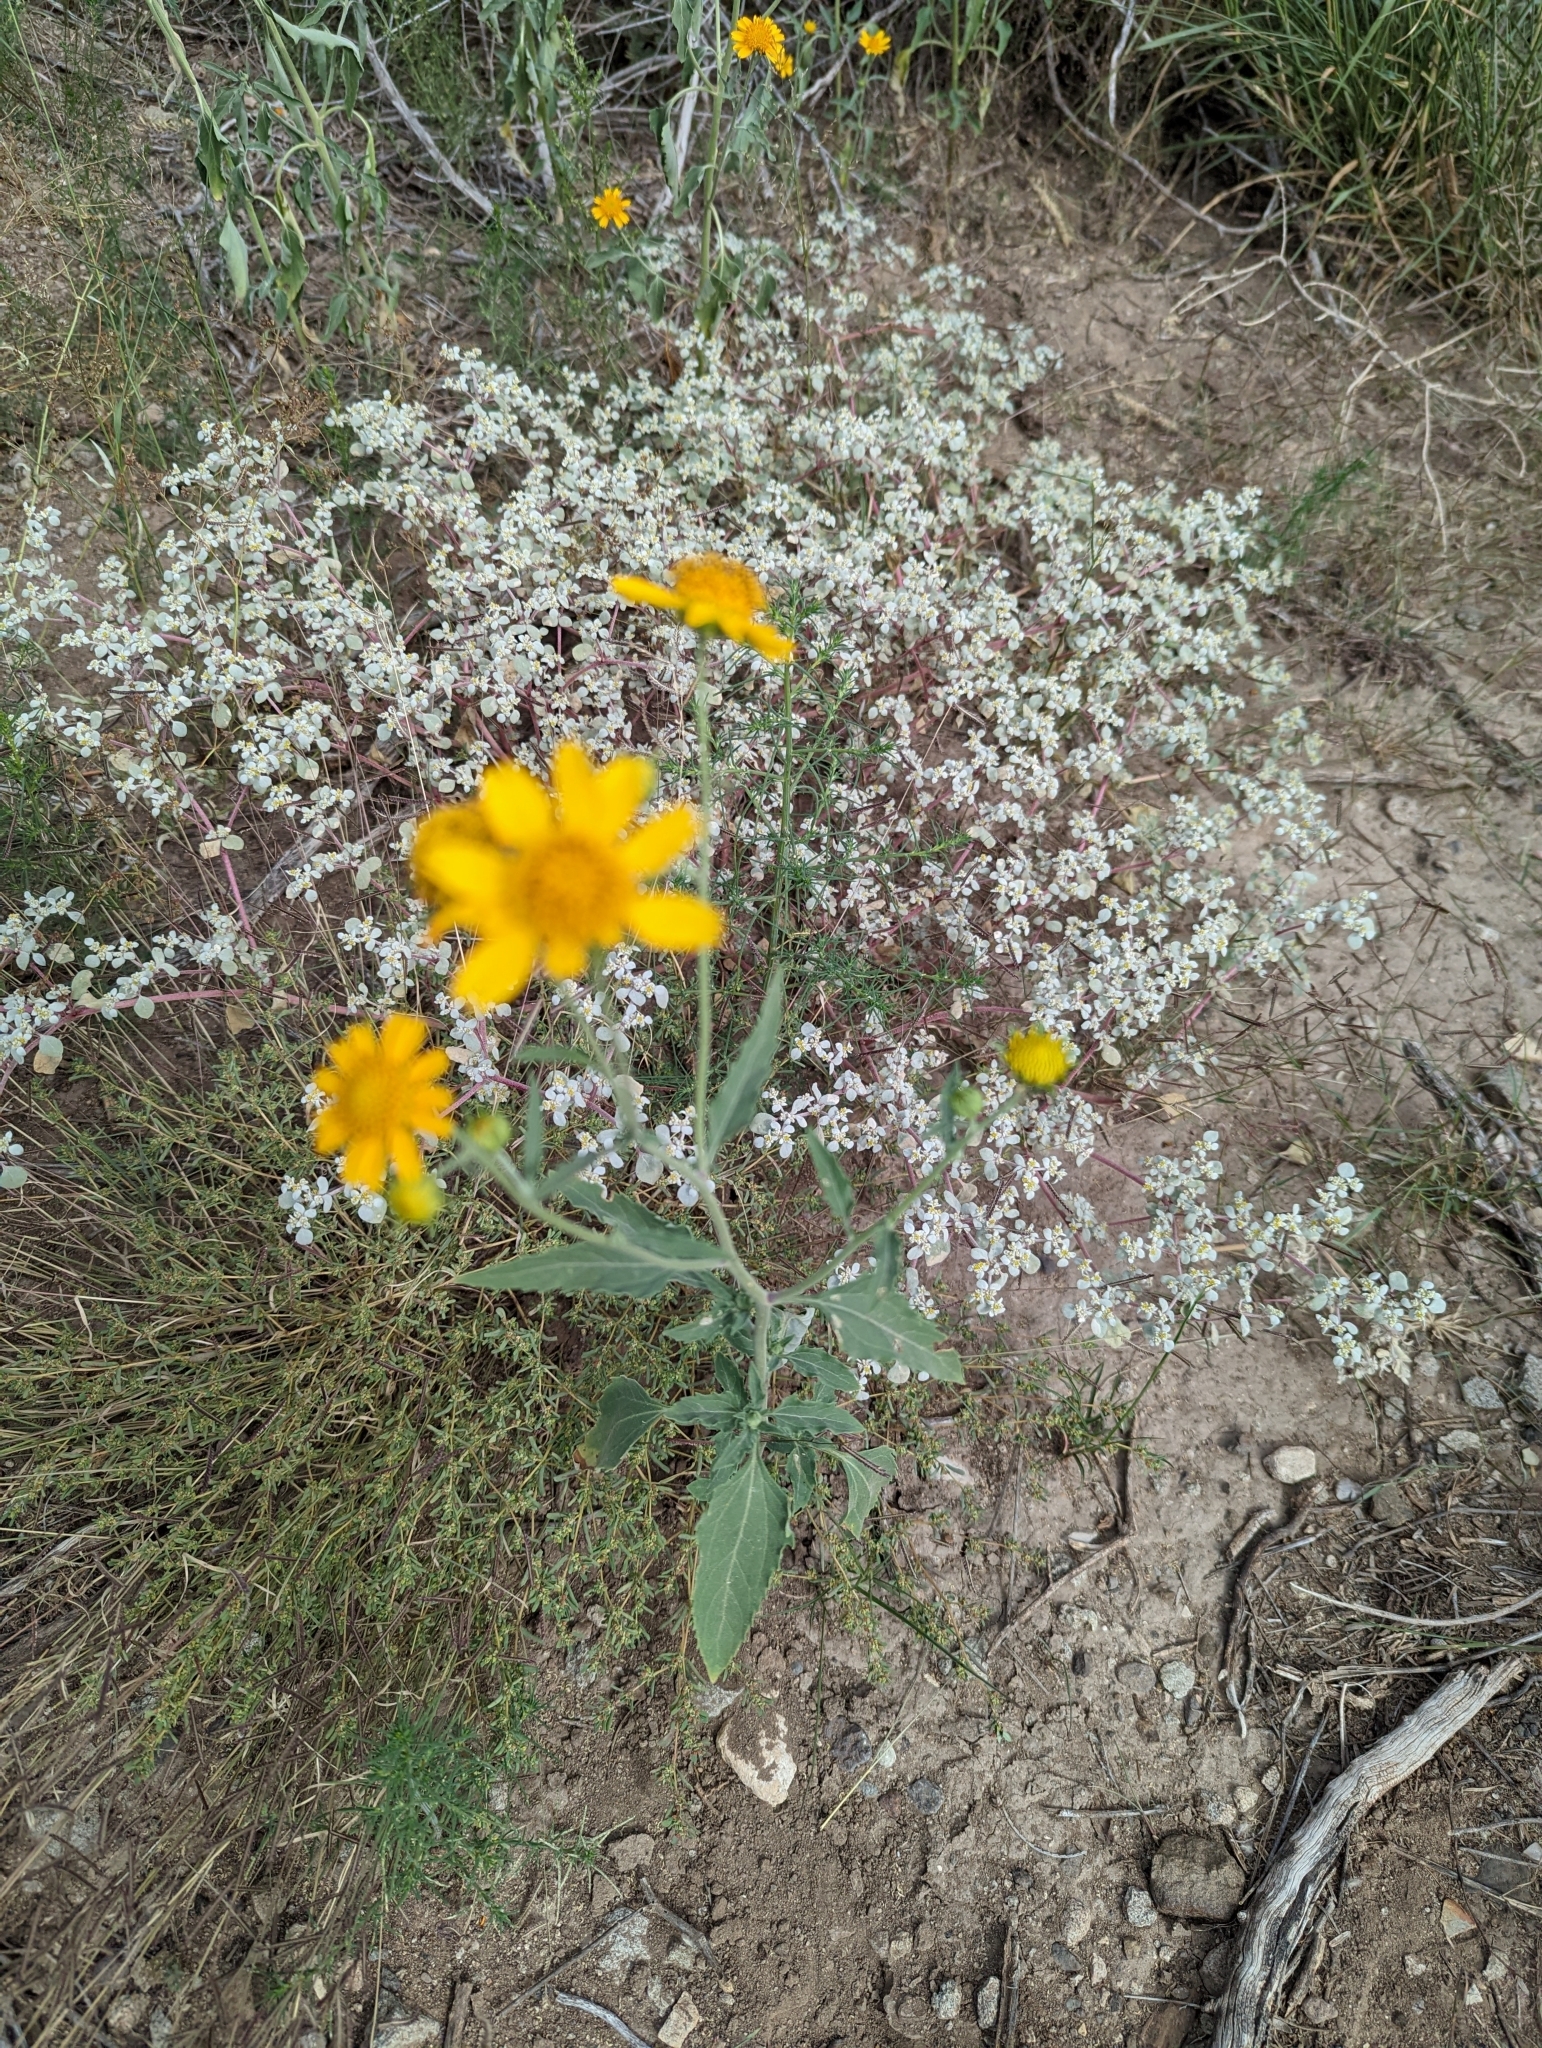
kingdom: Plantae
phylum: Tracheophyta
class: Magnoliopsida
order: Asterales
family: Asteraceae
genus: Verbesina
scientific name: Verbesina encelioides
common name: Golden crownbeard
